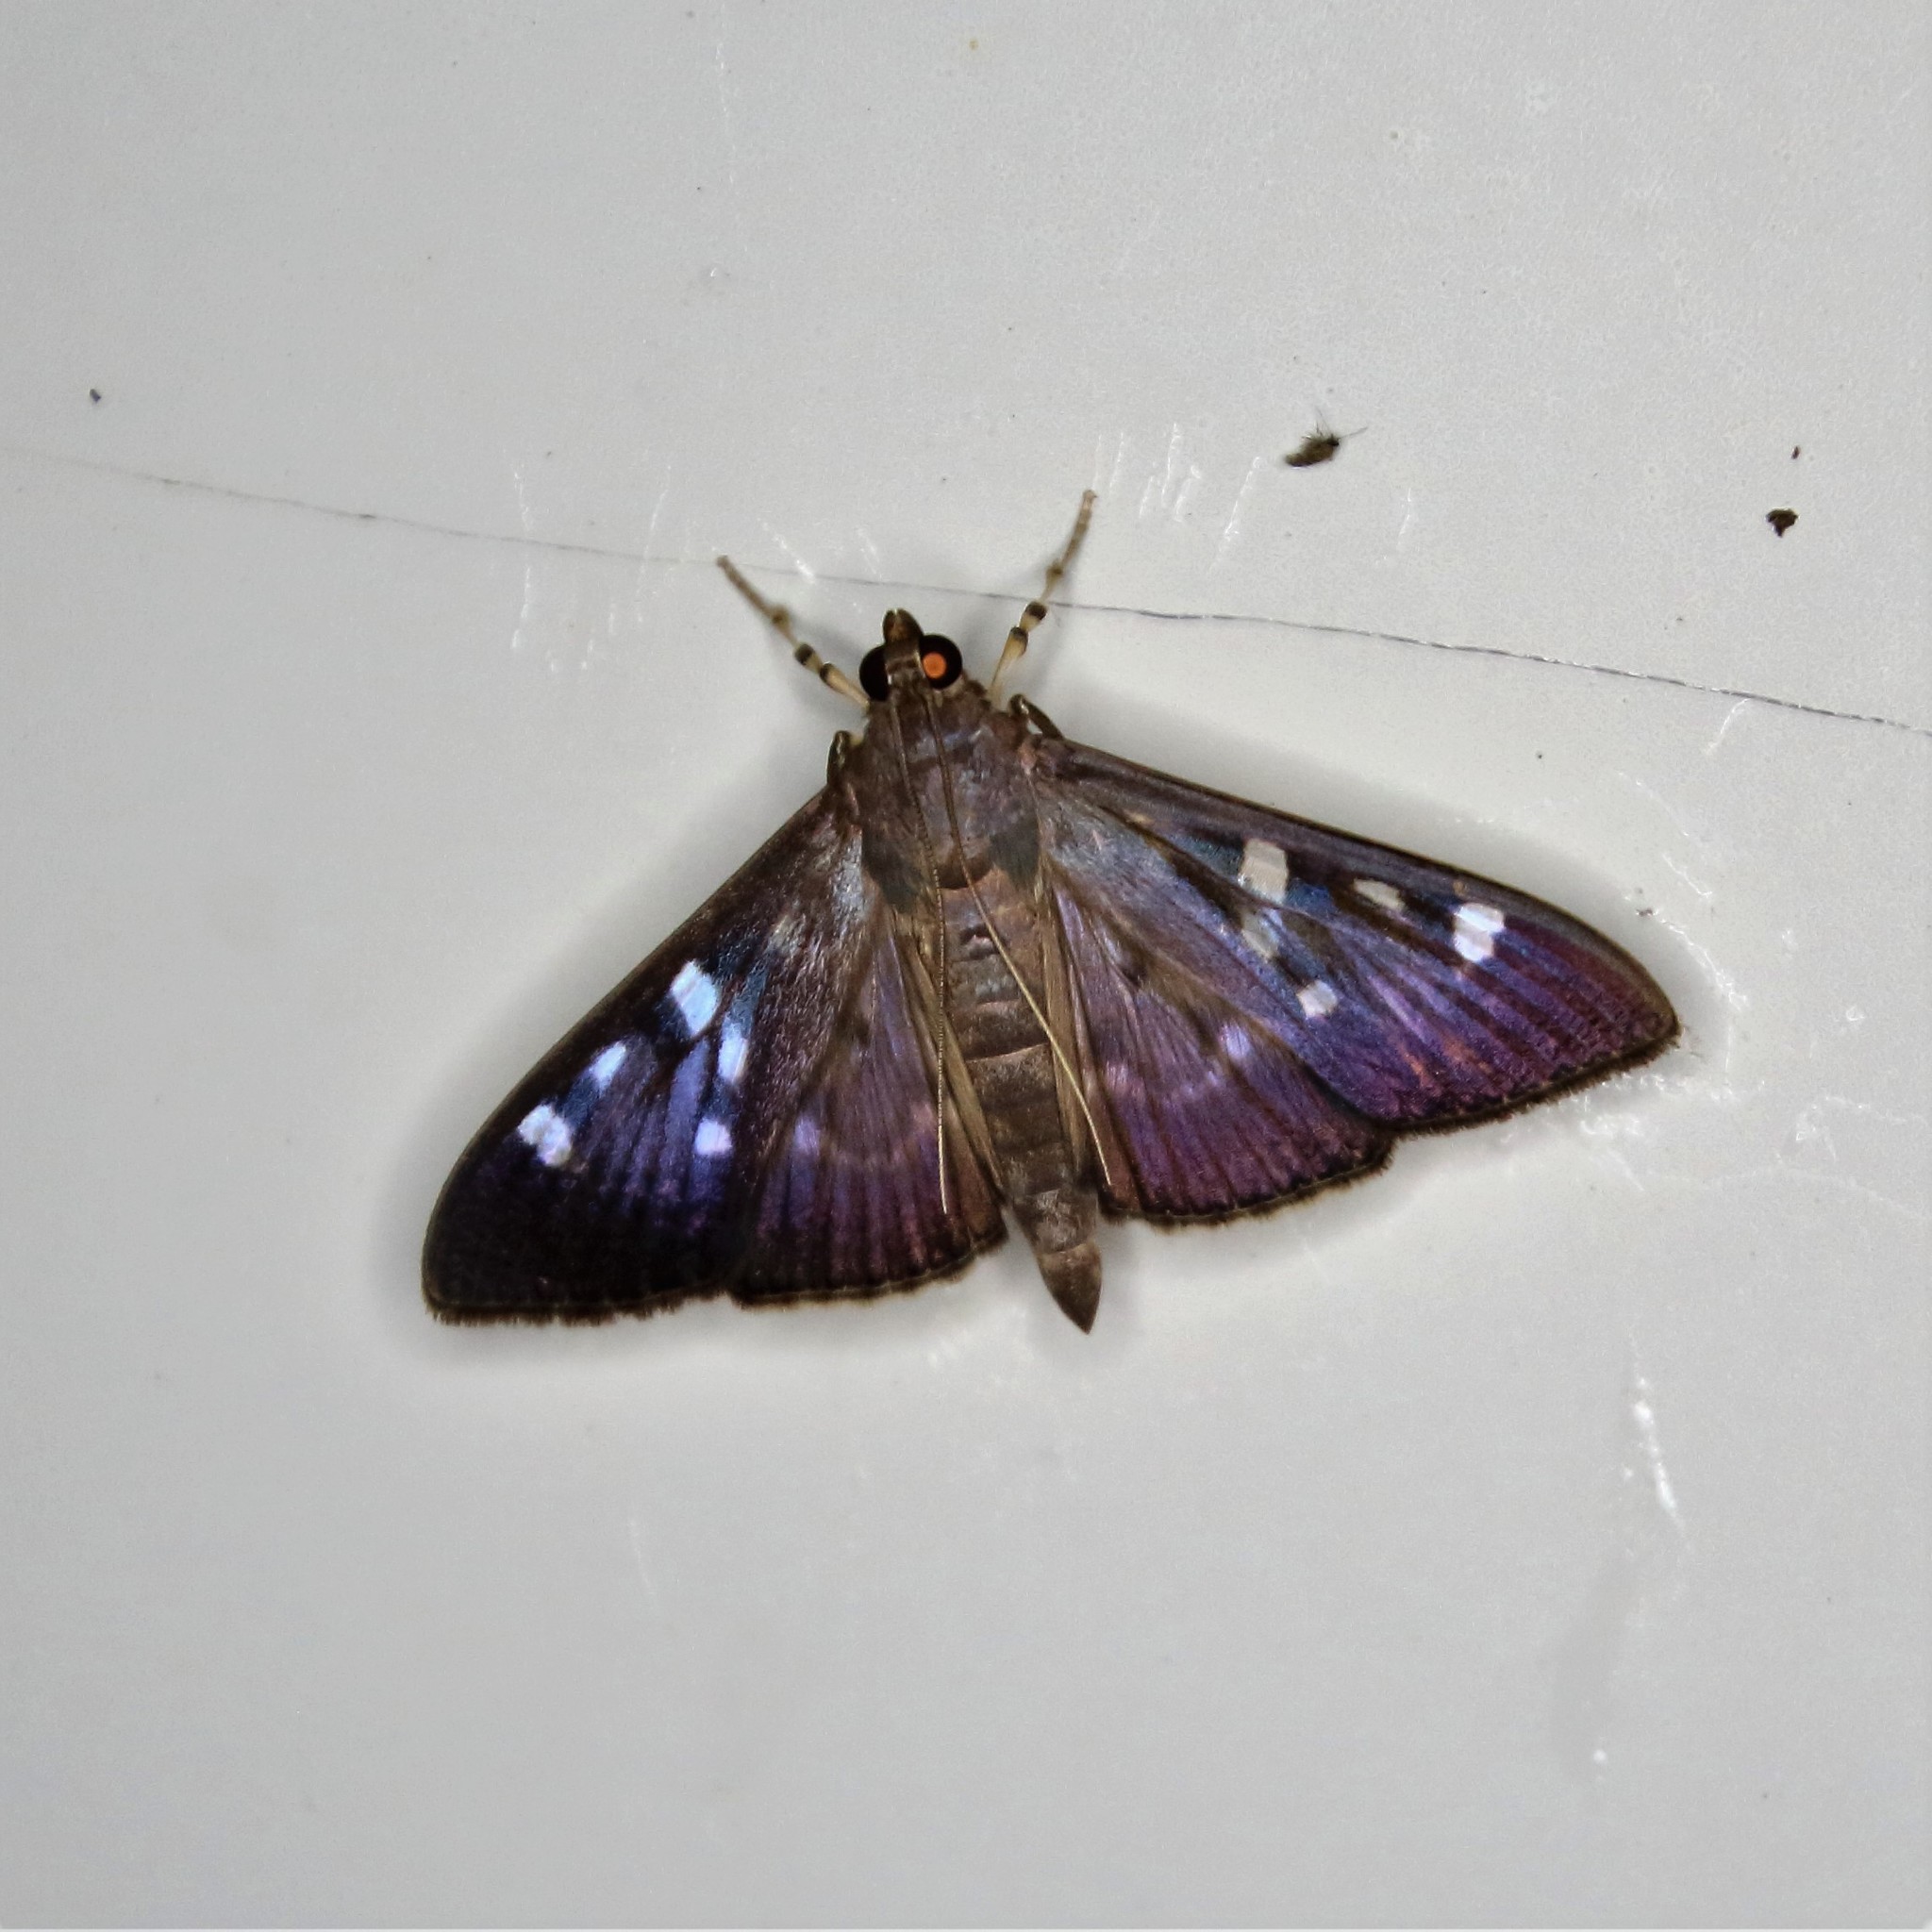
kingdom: Animalia
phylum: Arthropoda
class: Insecta
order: Lepidoptera
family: Crambidae
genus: Syllepte
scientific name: Syllepte iophanes
